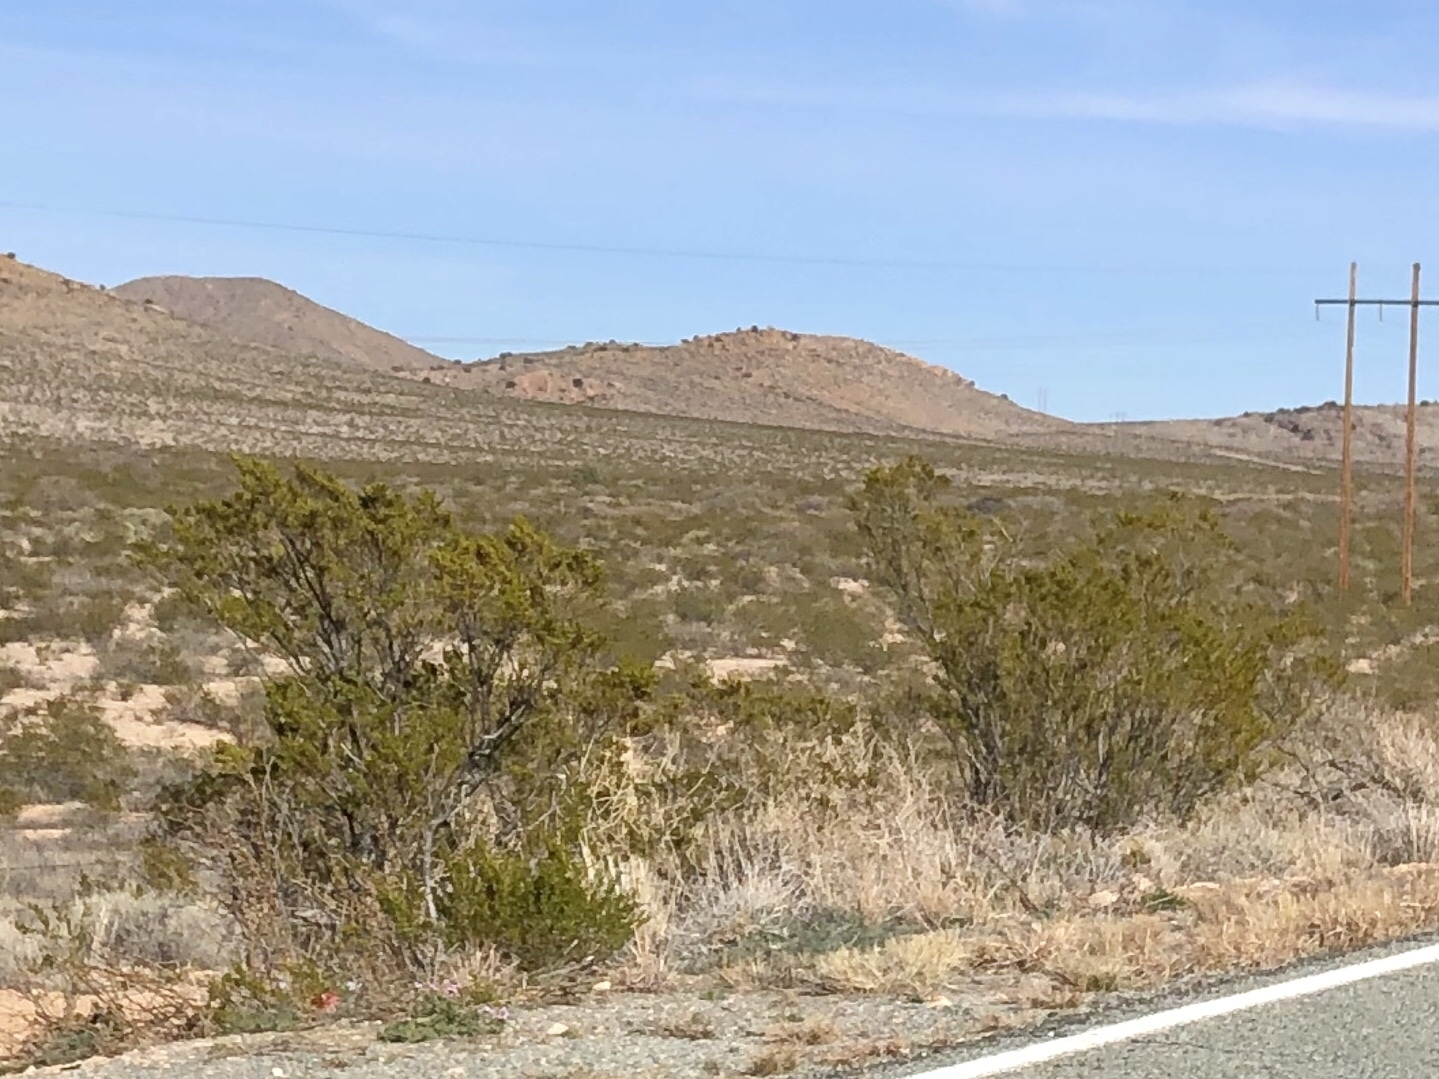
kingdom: Plantae
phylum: Tracheophyta
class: Magnoliopsida
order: Zygophyllales
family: Zygophyllaceae
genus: Larrea
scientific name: Larrea tridentata
